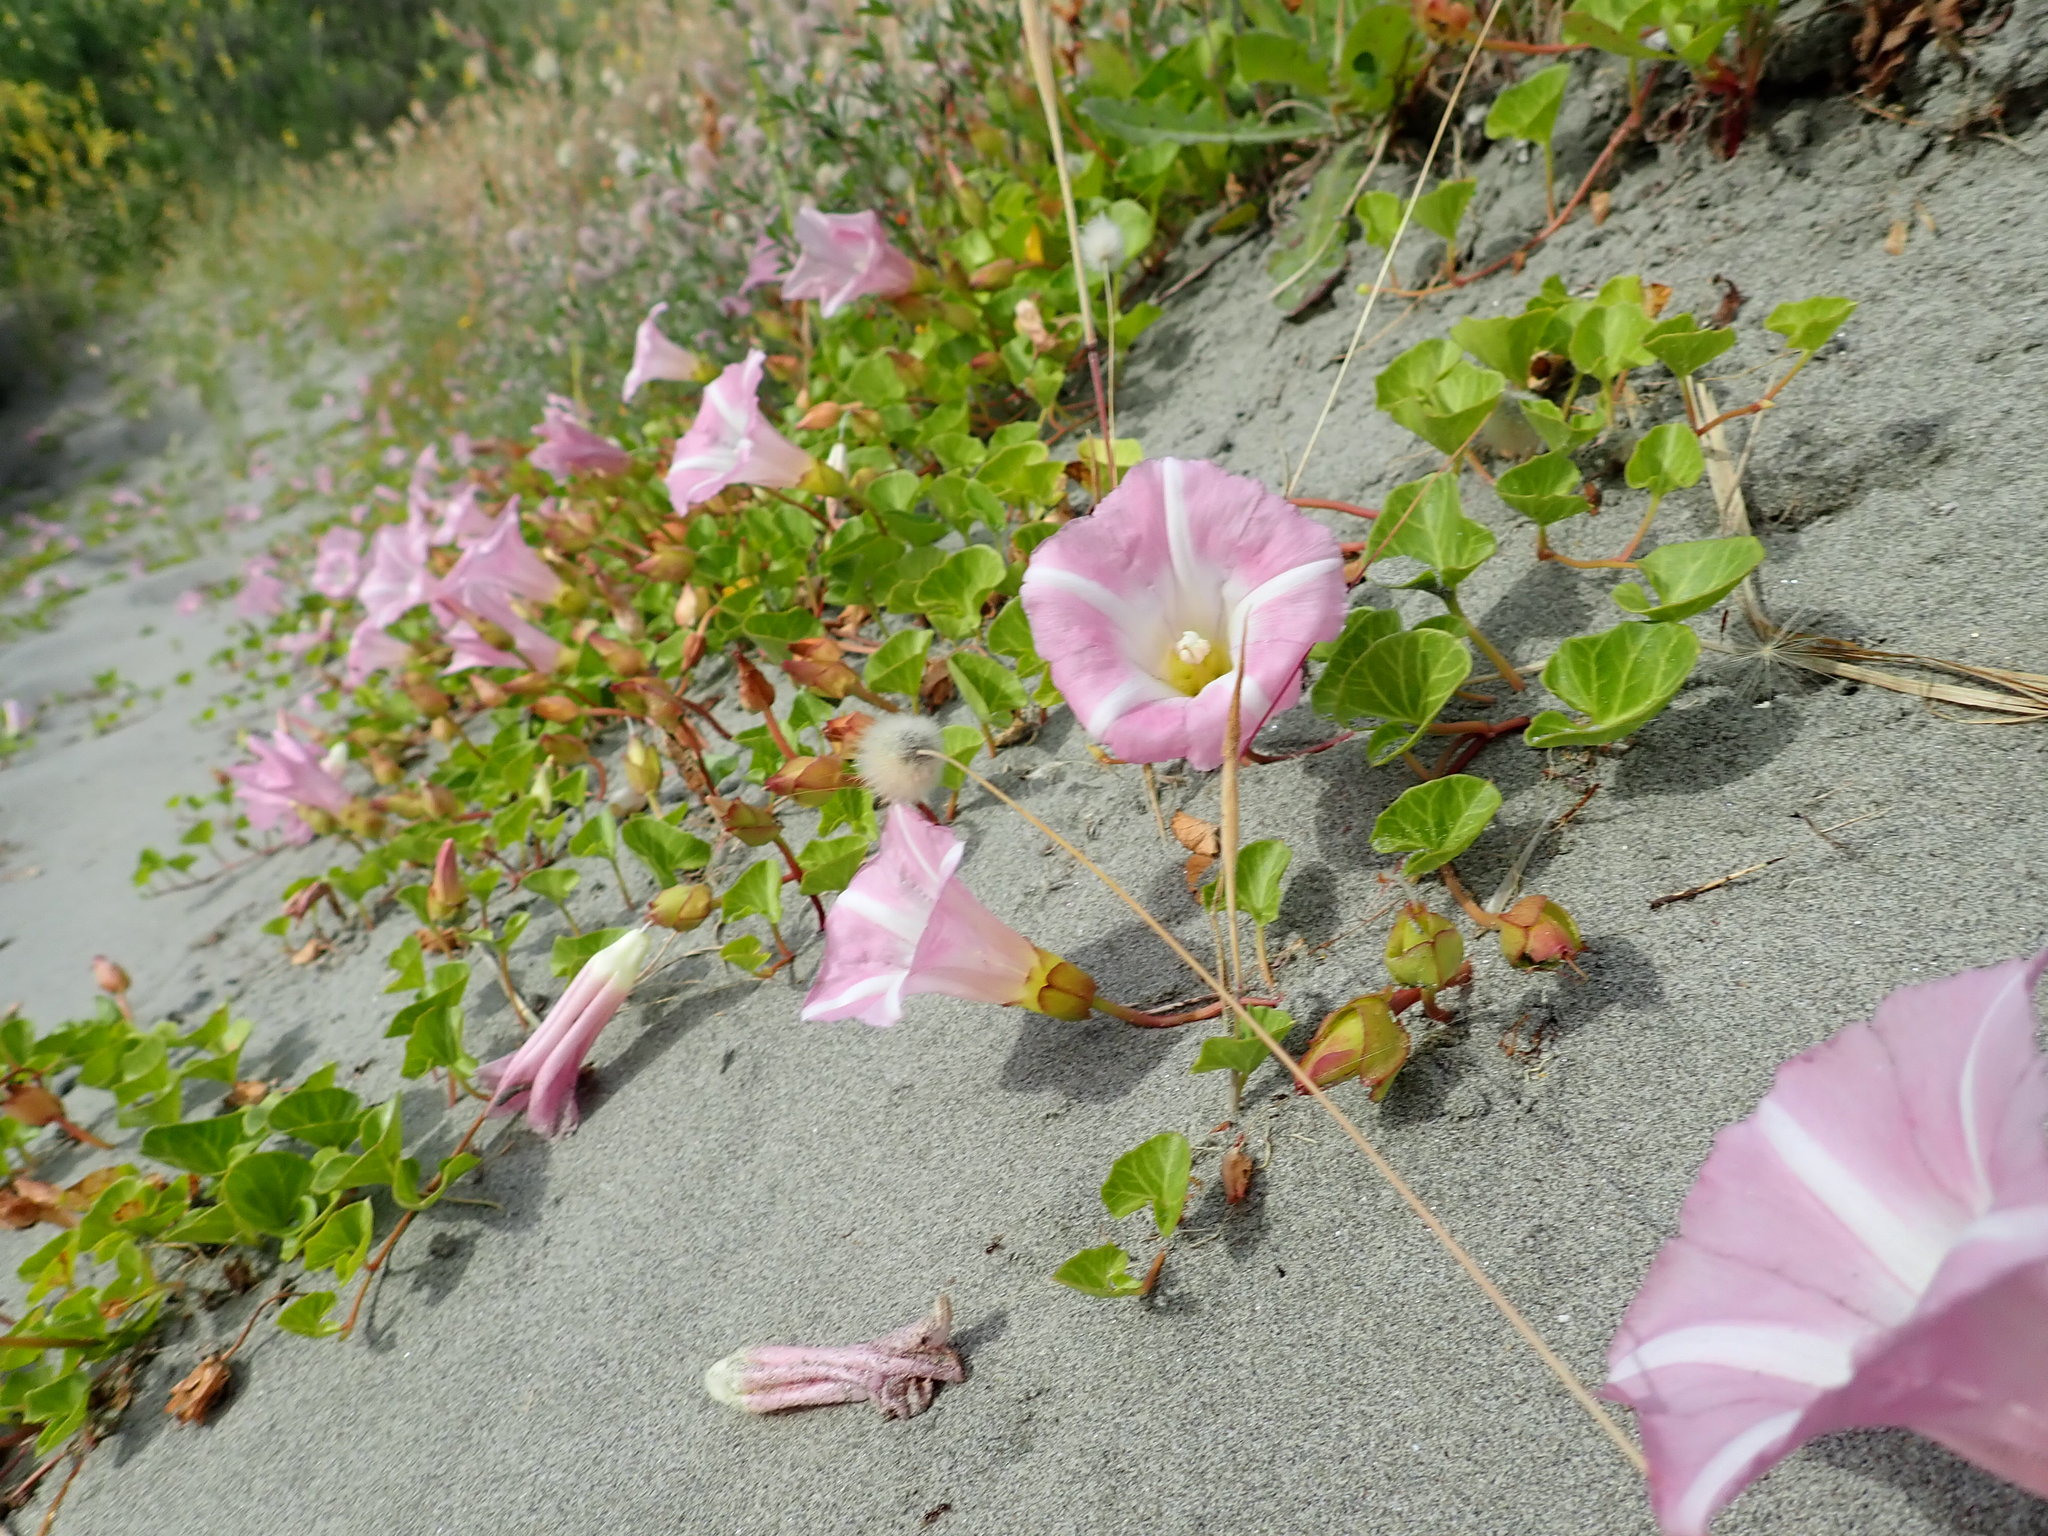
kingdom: Plantae
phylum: Tracheophyta
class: Magnoliopsida
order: Solanales
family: Convolvulaceae
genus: Calystegia
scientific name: Calystegia soldanella
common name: Sea bindweed
